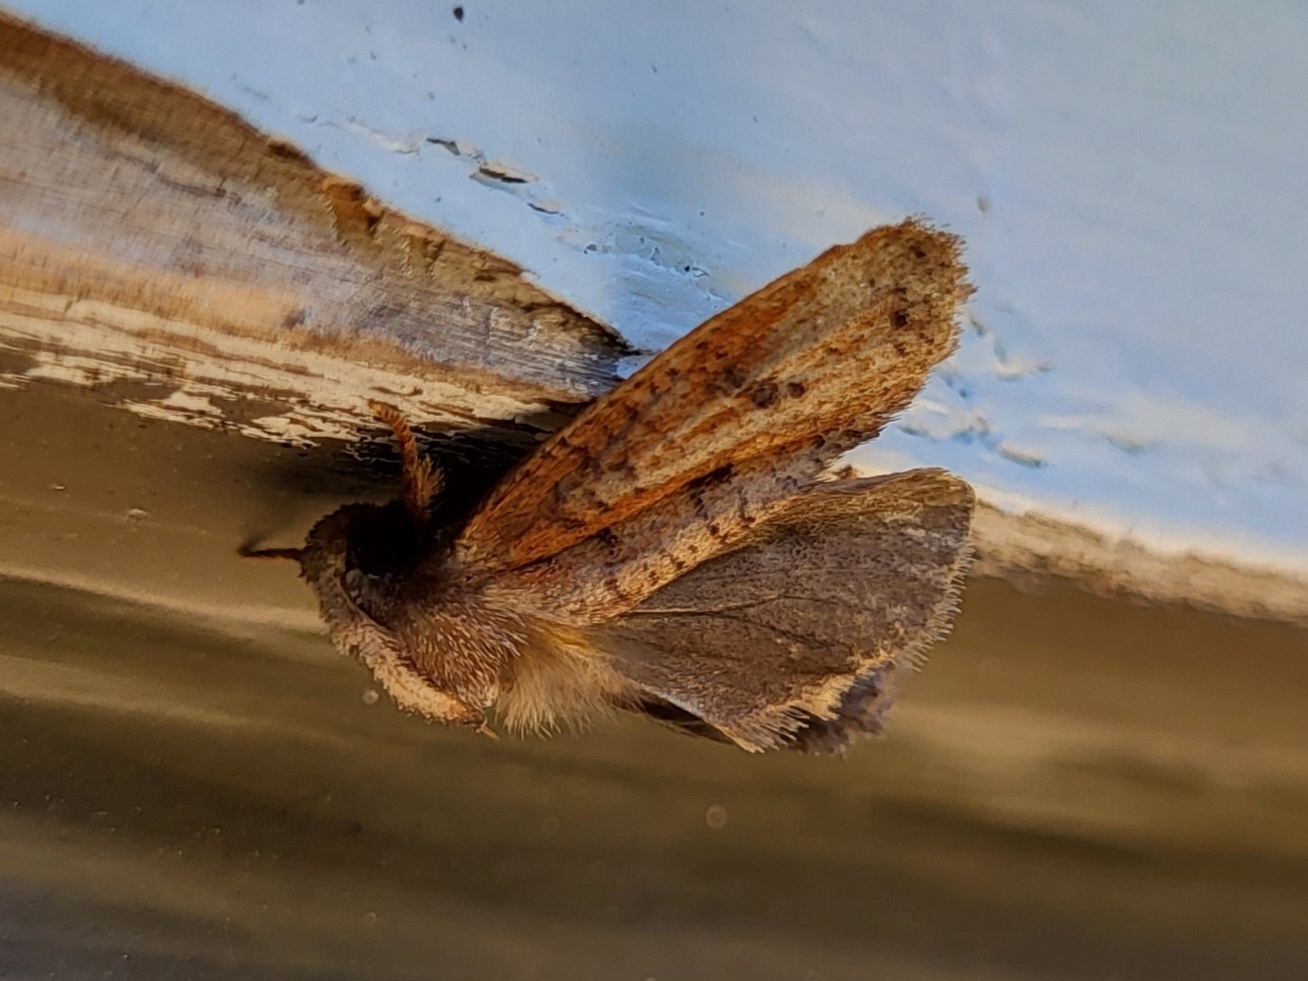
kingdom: Animalia
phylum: Arthropoda
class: Insecta
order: Lepidoptera
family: Tineidae
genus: Acrolophus
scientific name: Acrolophus plumifrontella
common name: Eastern grass tubeworm moth
